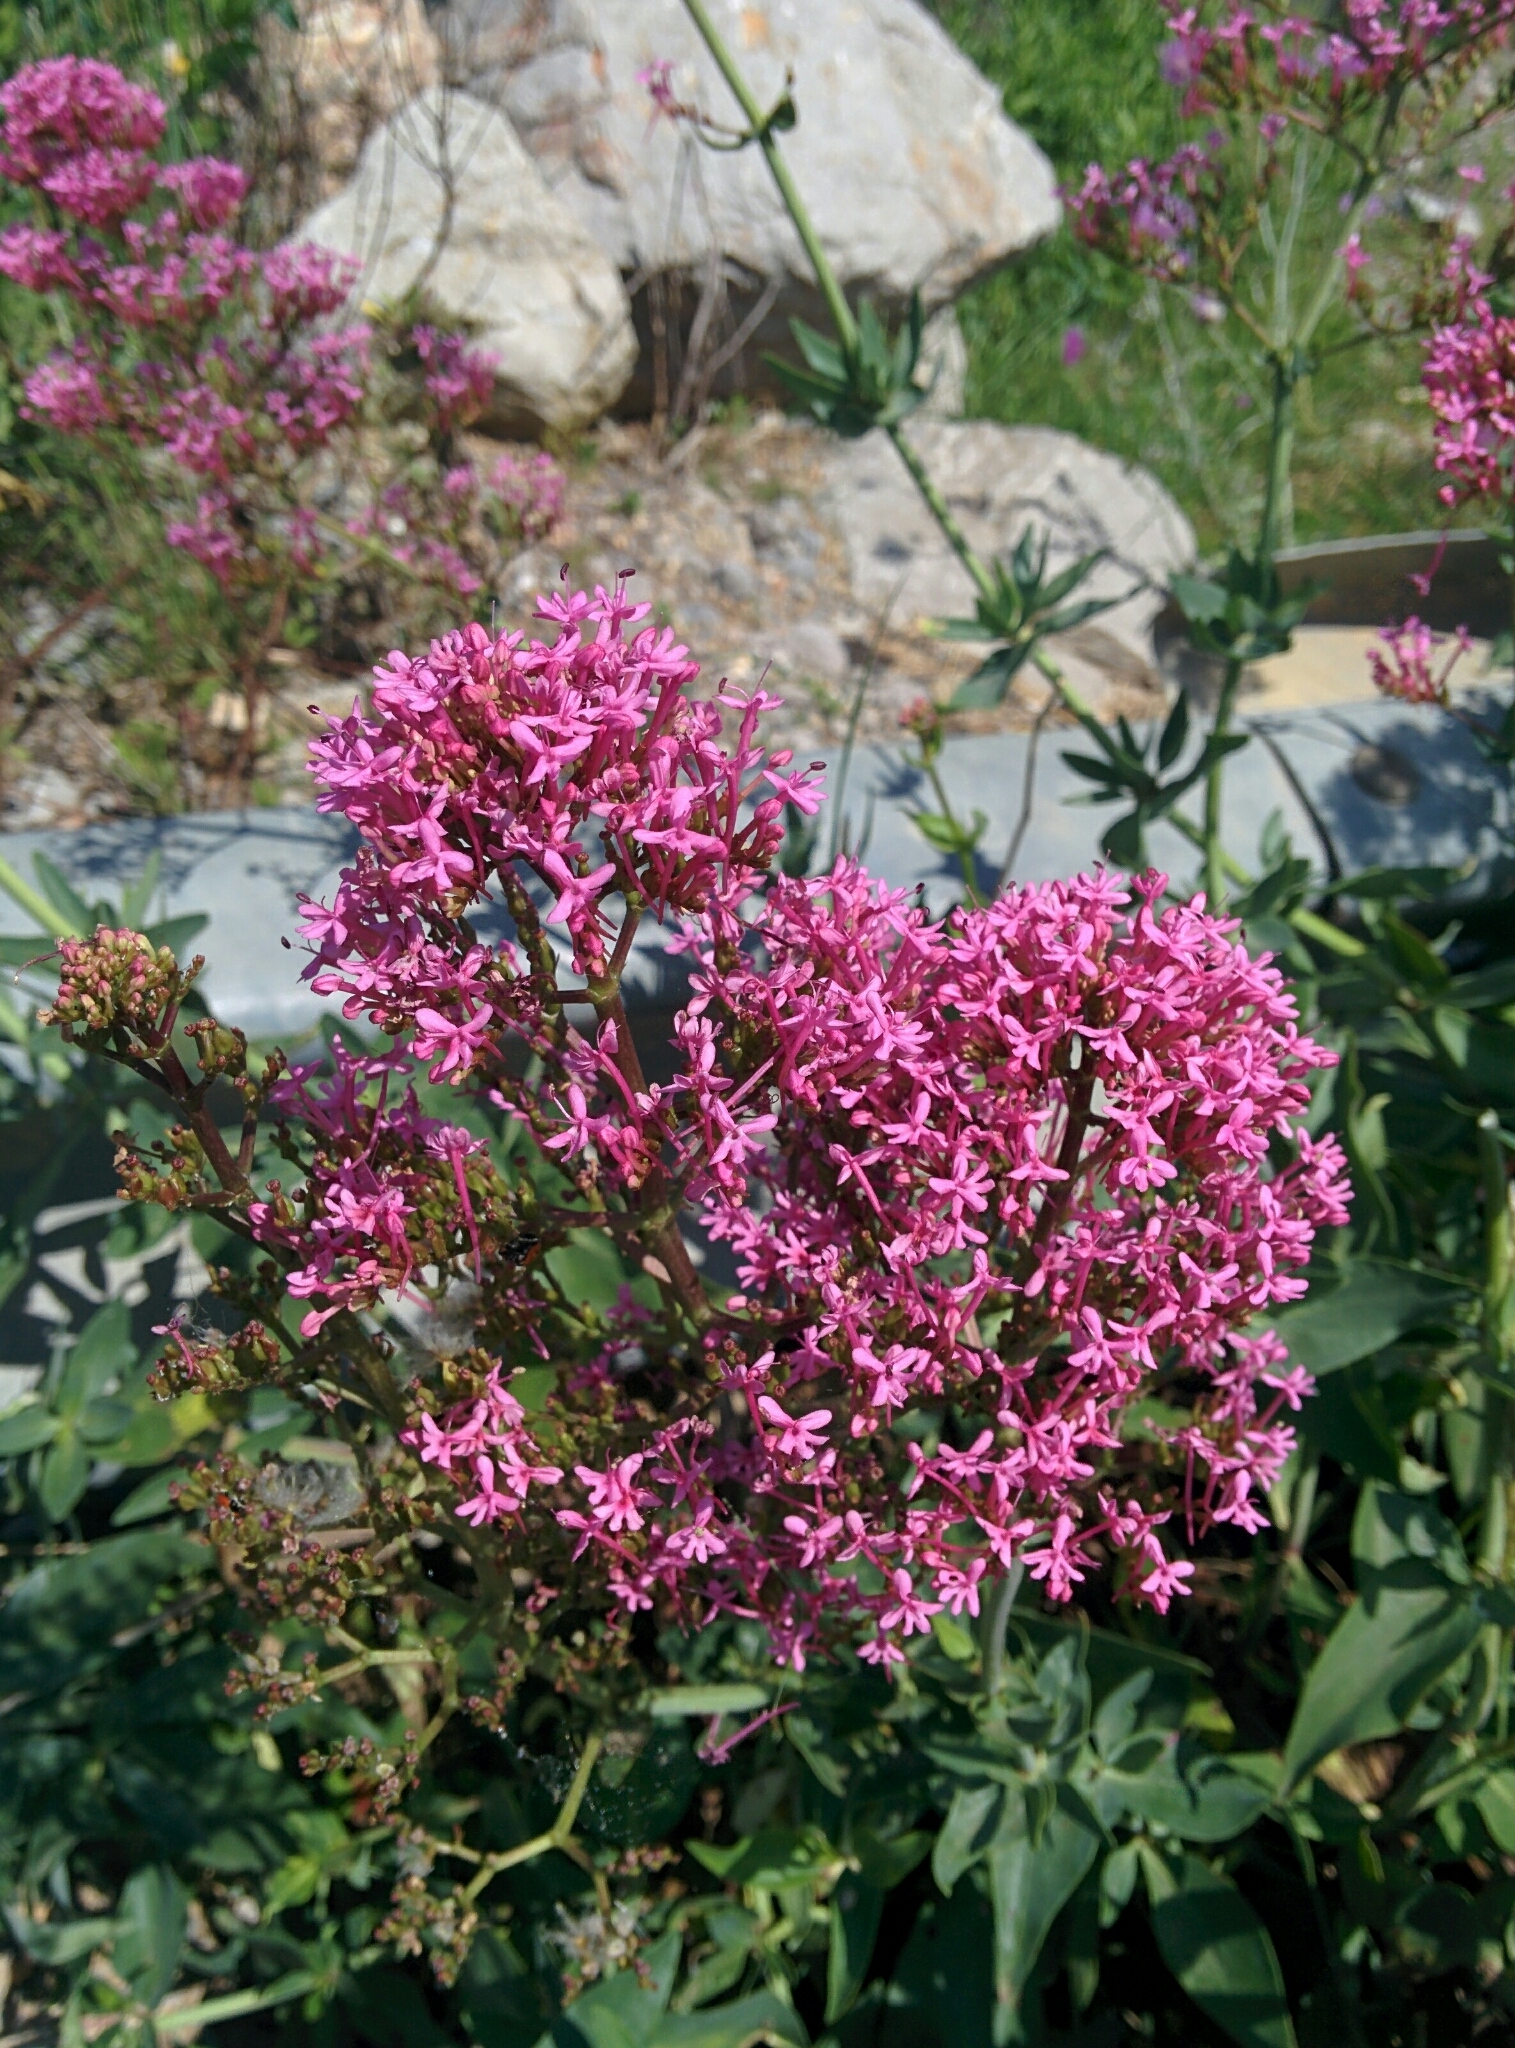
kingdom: Plantae
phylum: Tracheophyta
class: Magnoliopsida
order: Dipsacales
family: Caprifoliaceae
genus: Centranthus
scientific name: Centranthus ruber
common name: Red valerian
